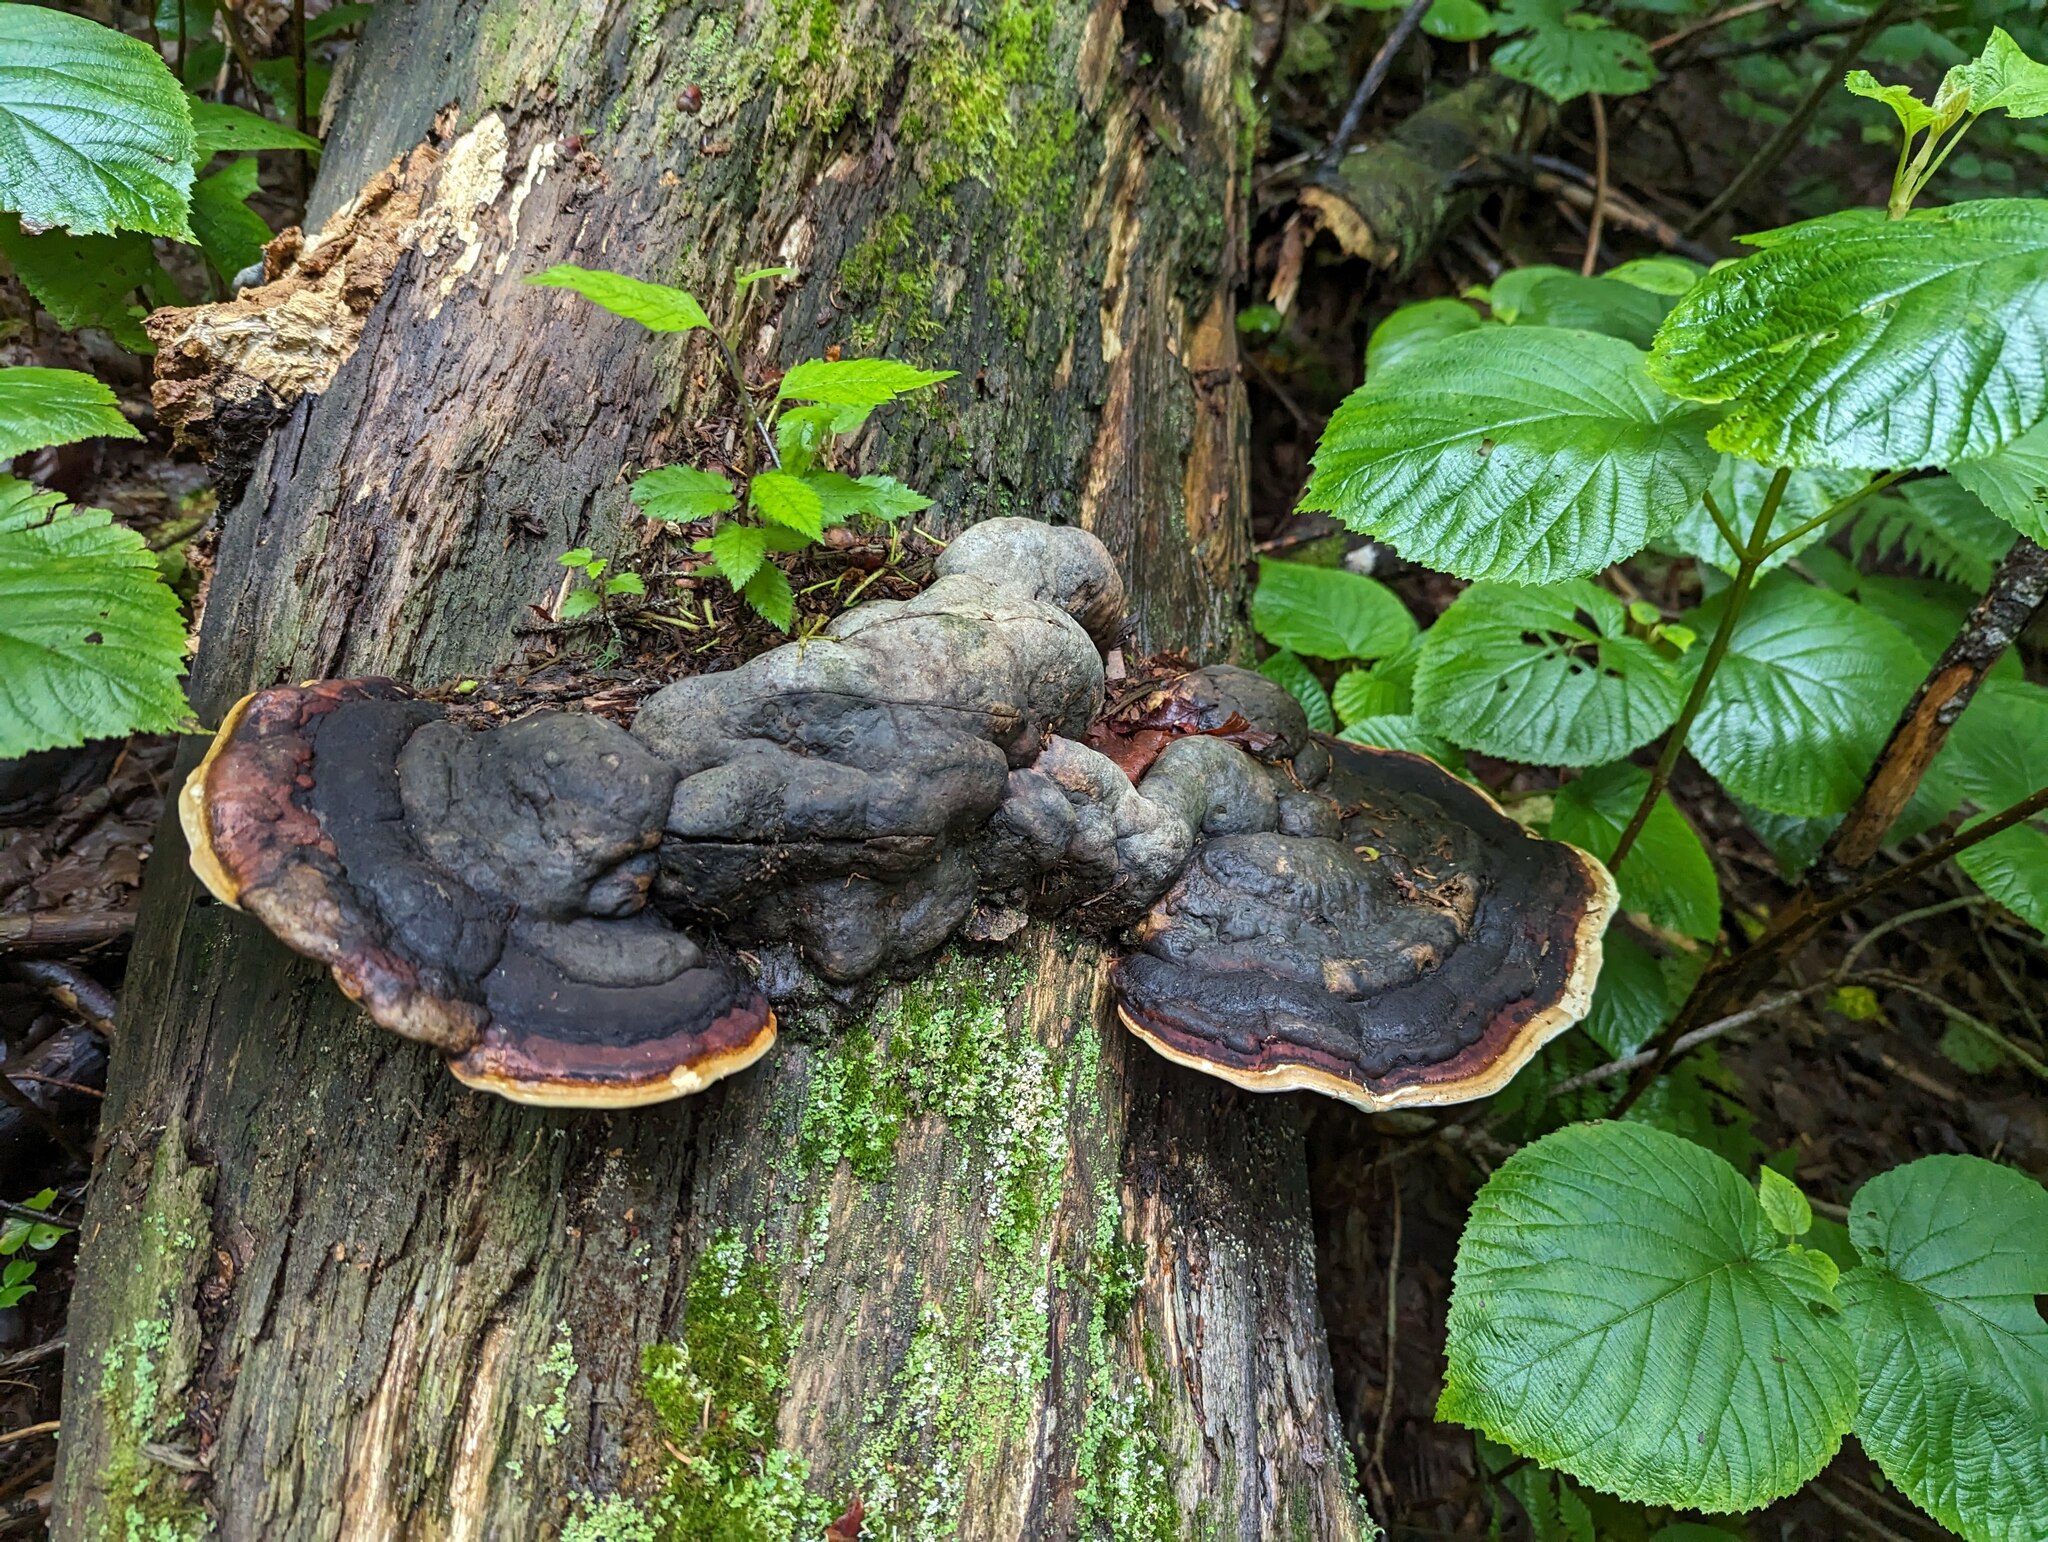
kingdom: Fungi
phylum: Basidiomycota
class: Agaricomycetes
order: Polyporales
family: Fomitopsidaceae
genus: Fomitopsis
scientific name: Fomitopsis mounceae
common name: Northern red belt
